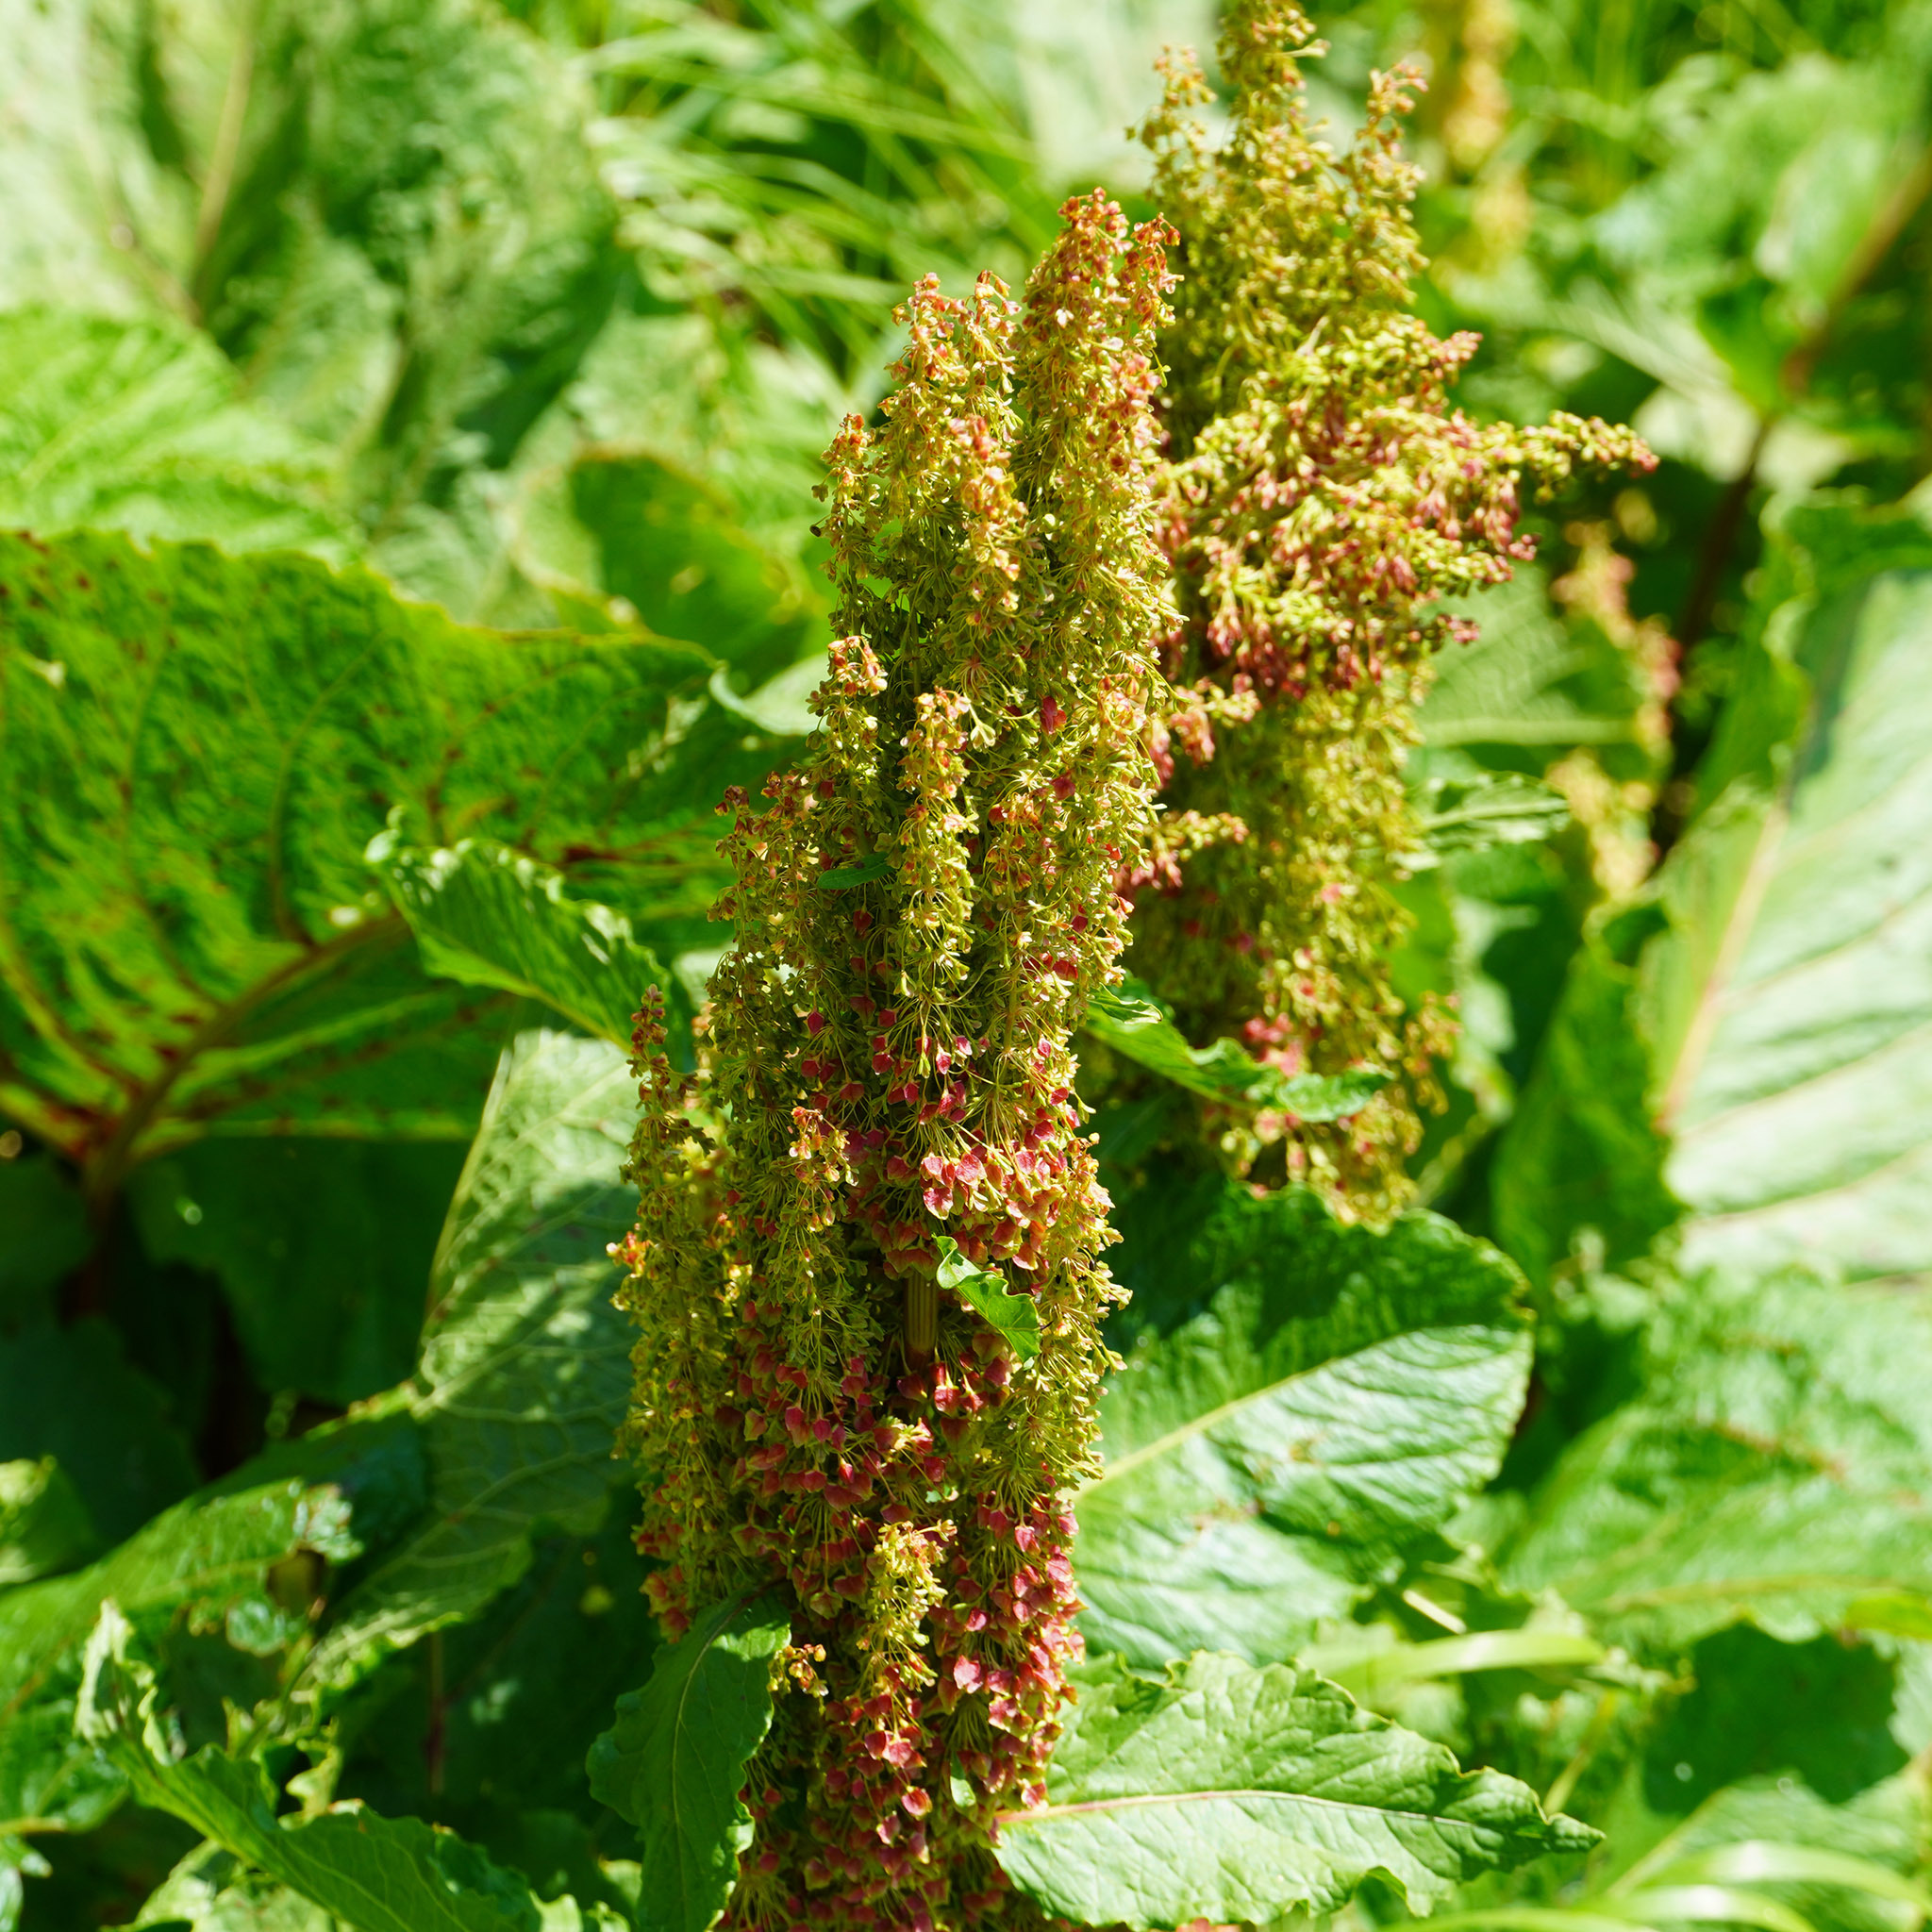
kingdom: Plantae
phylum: Tracheophyta
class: Magnoliopsida
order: Caryophyllales
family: Polygonaceae
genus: Rumex
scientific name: Rumex alpinus
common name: Alpine dock
